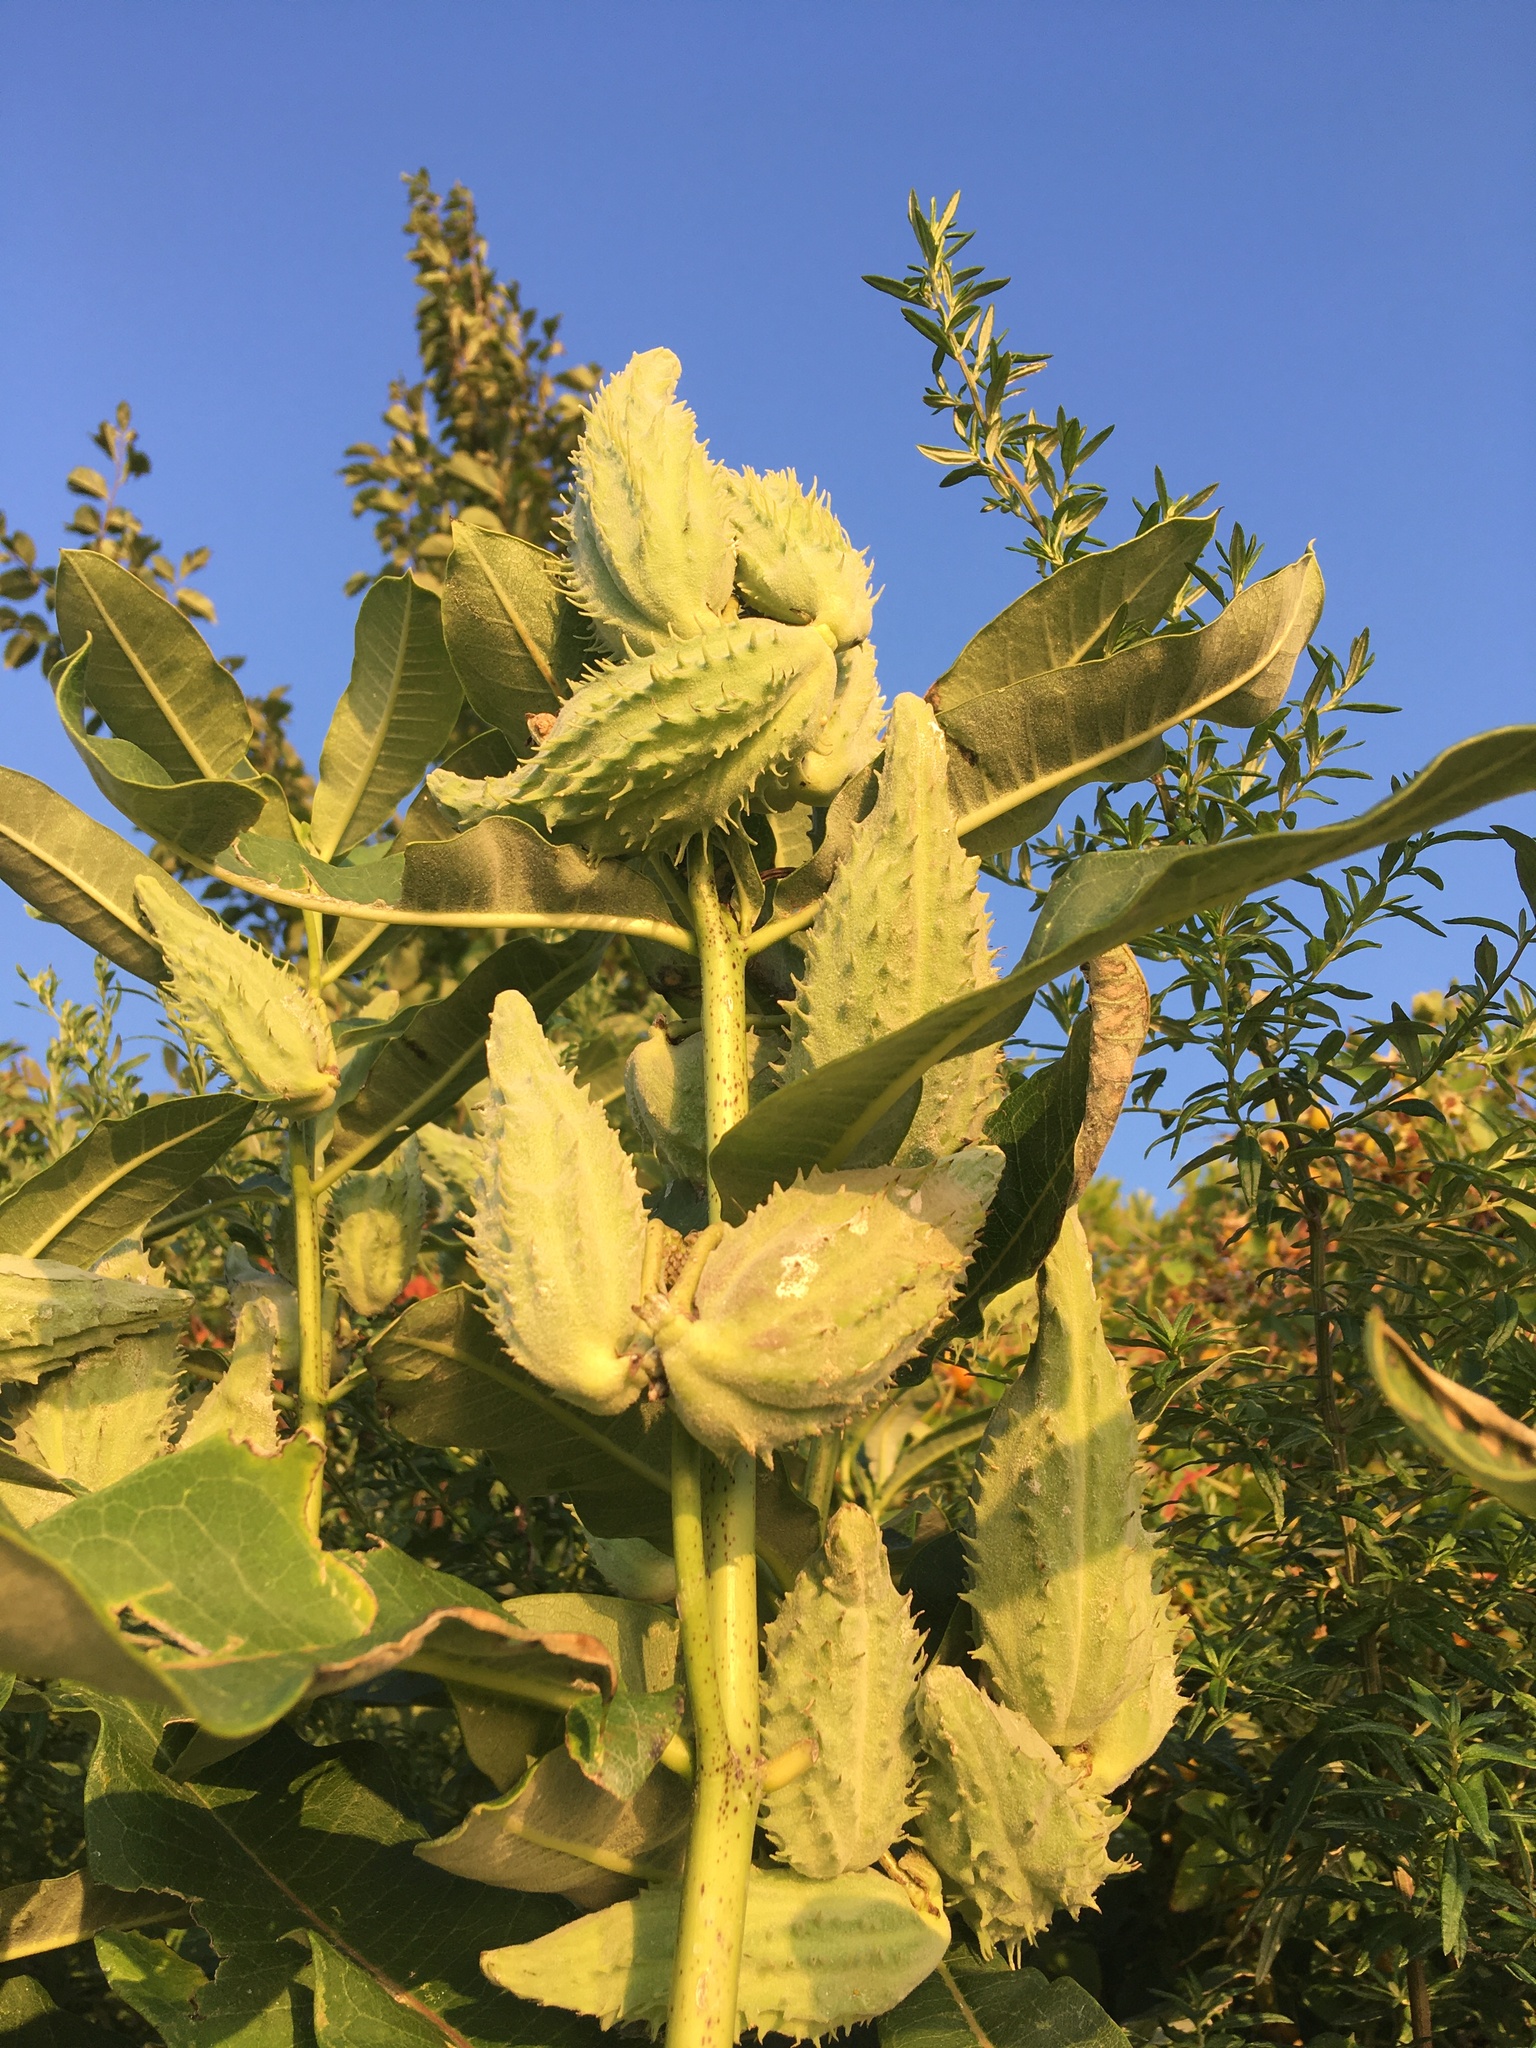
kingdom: Plantae
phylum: Tracheophyta
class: Magnoliopsida
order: Gentianales
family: Apocynaceae
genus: Asclepias
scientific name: Asclepias syriaca
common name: Common milkweed
